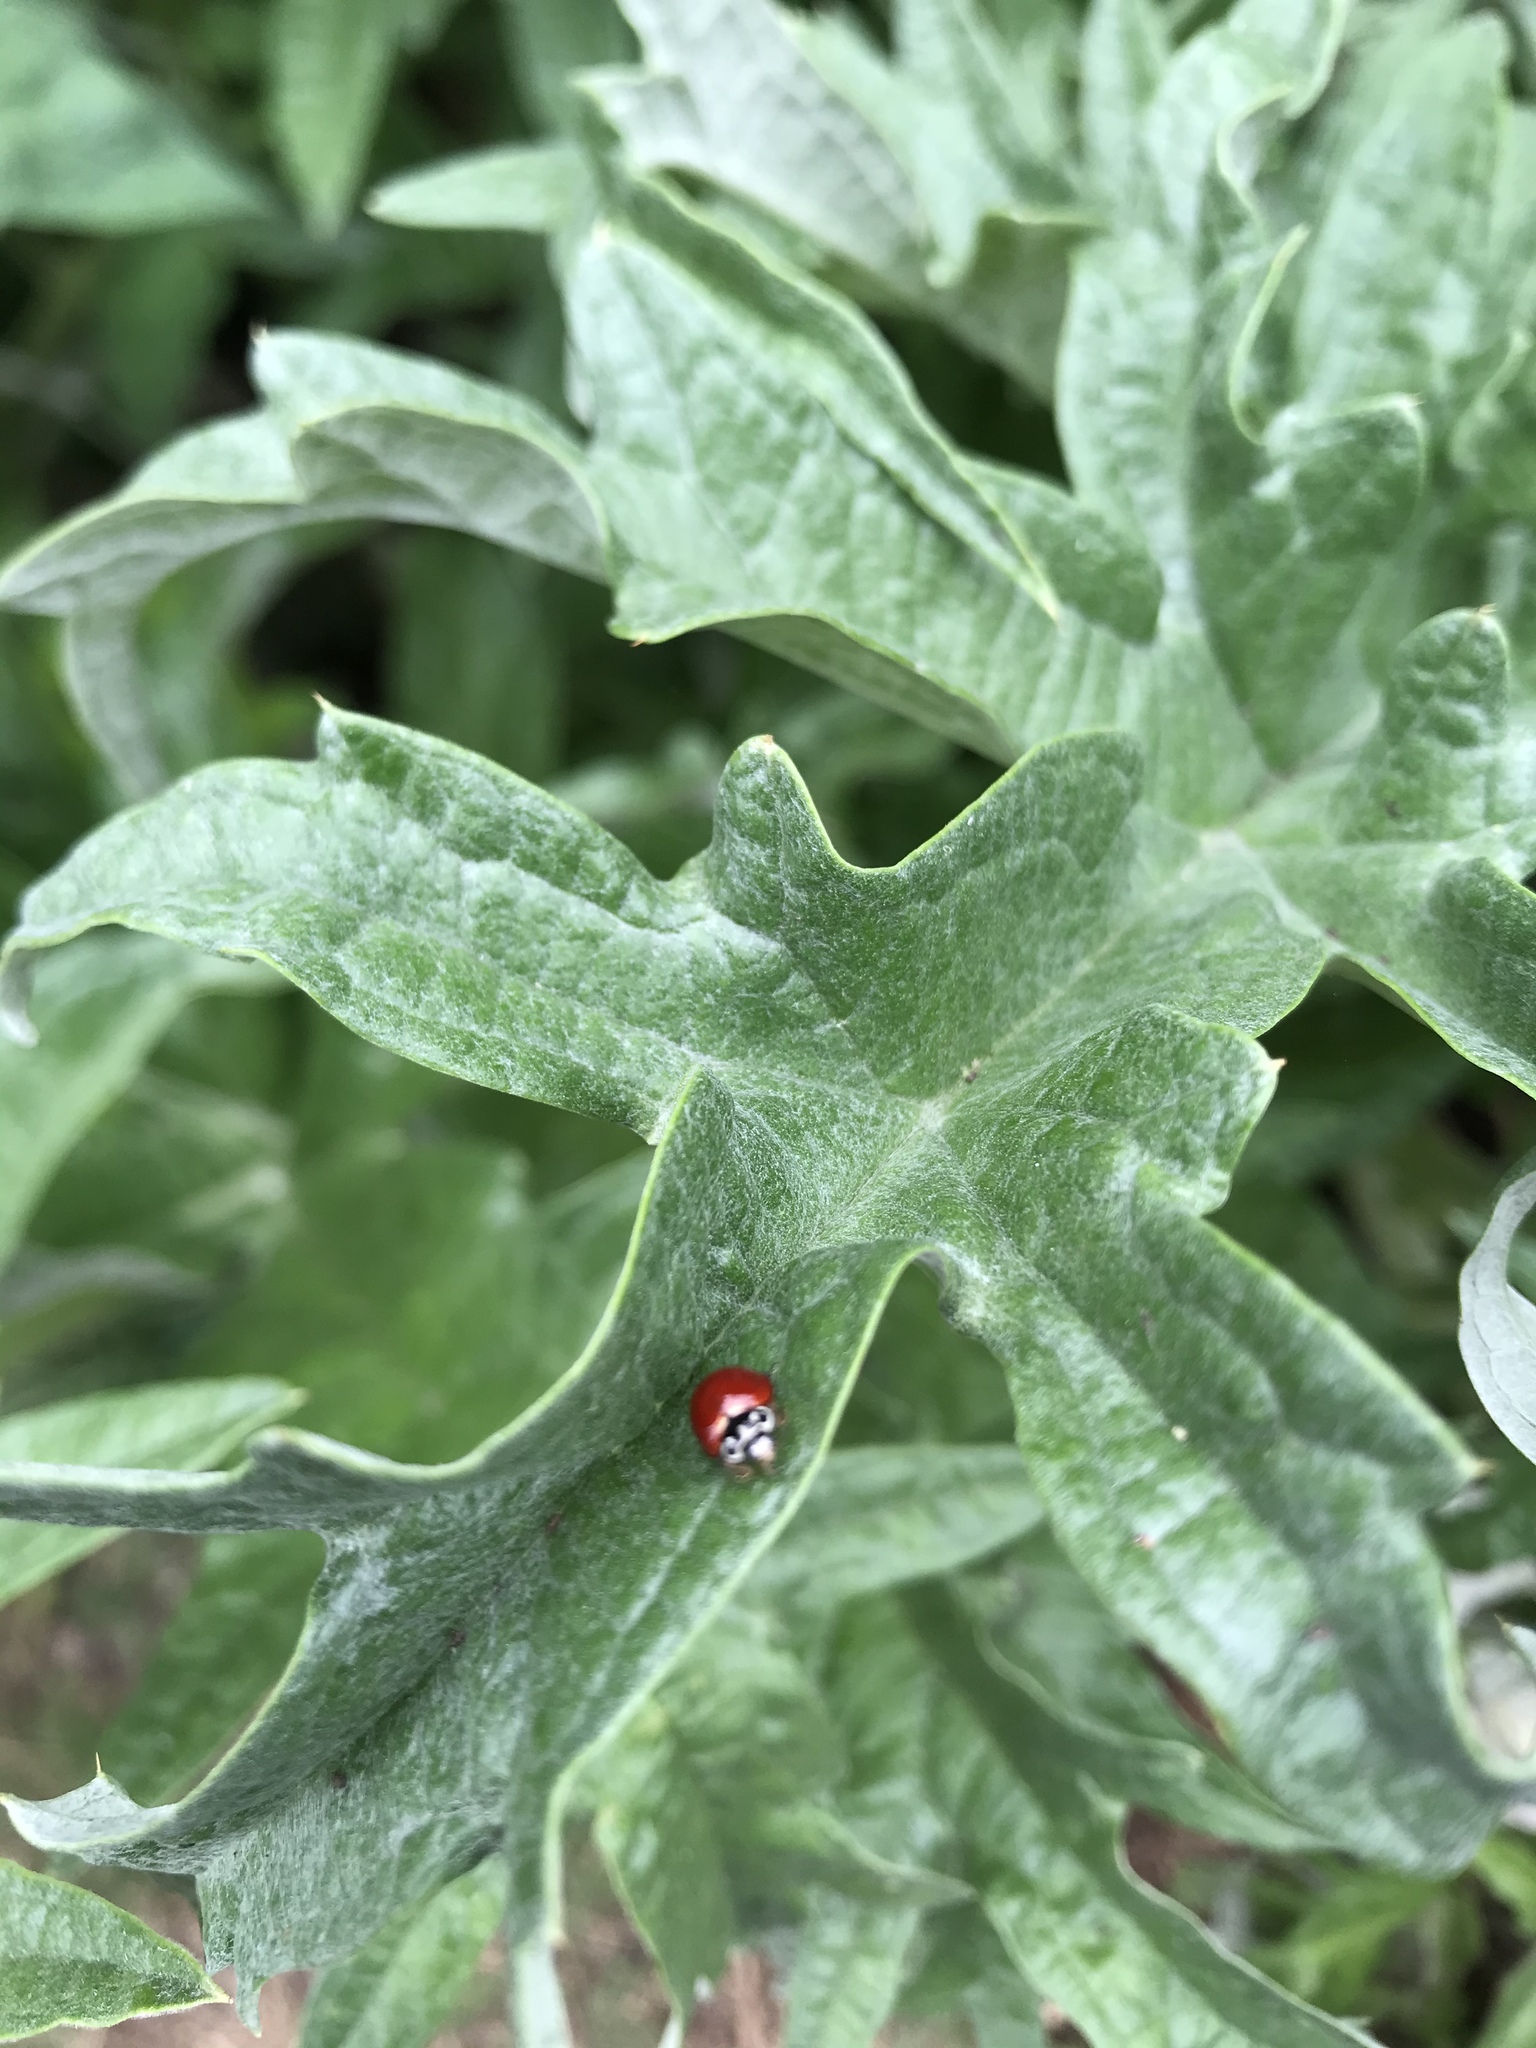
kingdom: Animalia
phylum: Arthropoda
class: Insecta
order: Coleoptera
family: Coccinellidae
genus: Cycloneda
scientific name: Cycloneda sanguinea
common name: Ladybird beetle
